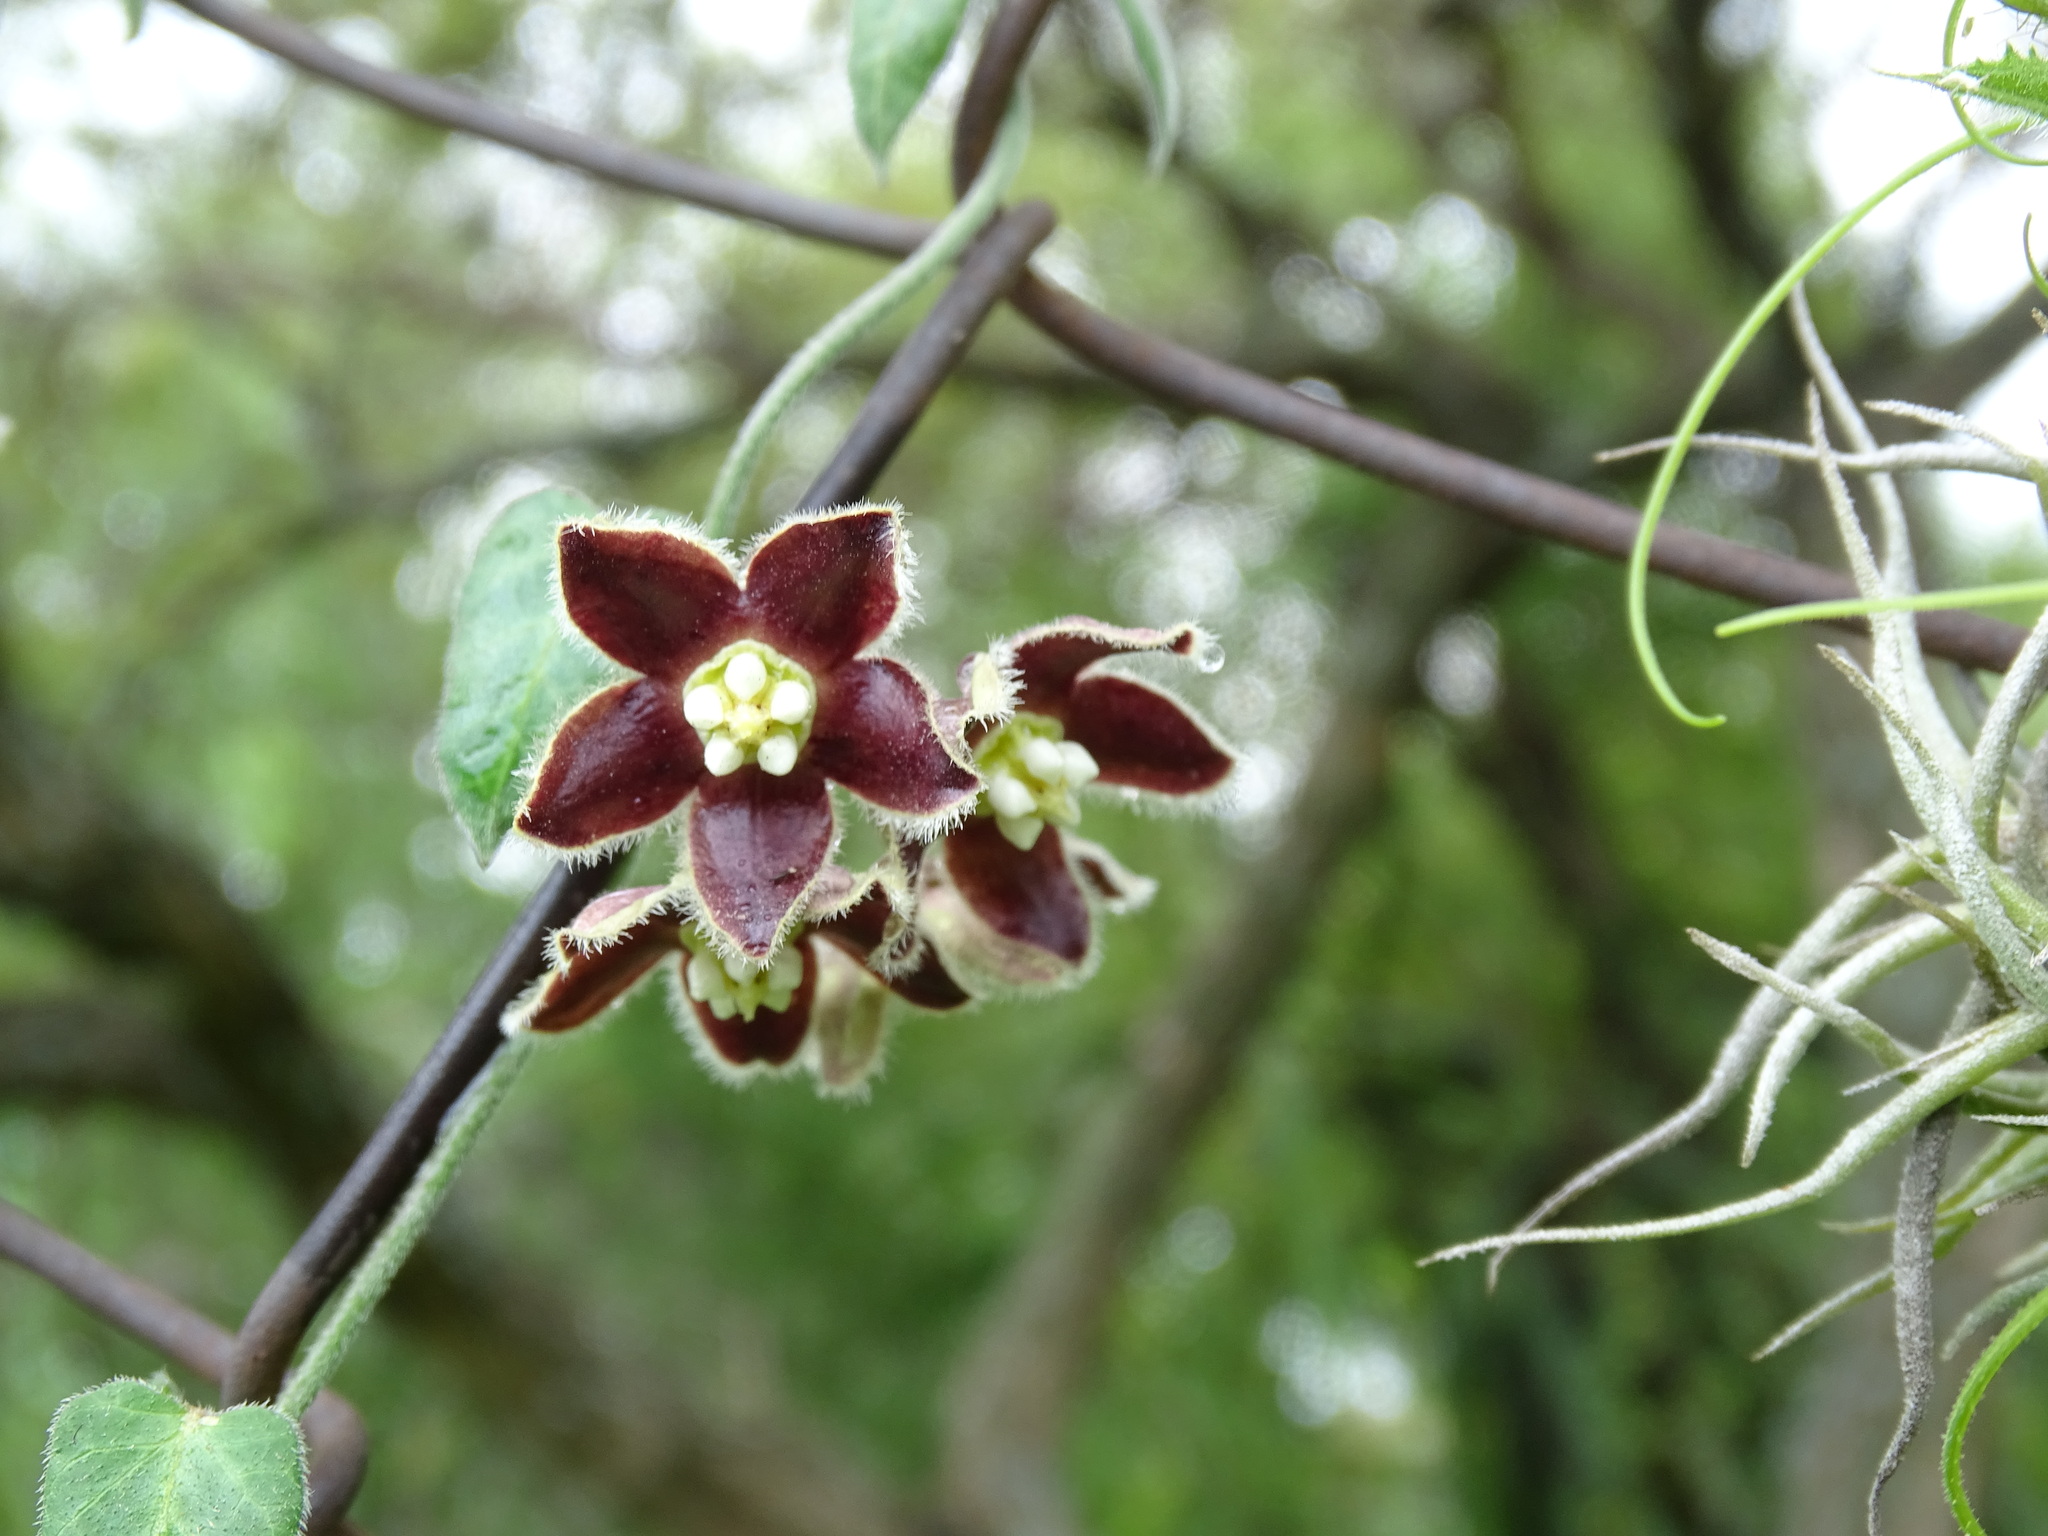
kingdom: Plantae
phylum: Tracheophyta
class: Magnoliopsida
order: Gentianales
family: Apocynaceae
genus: Funastrum
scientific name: Funastrum elegans
